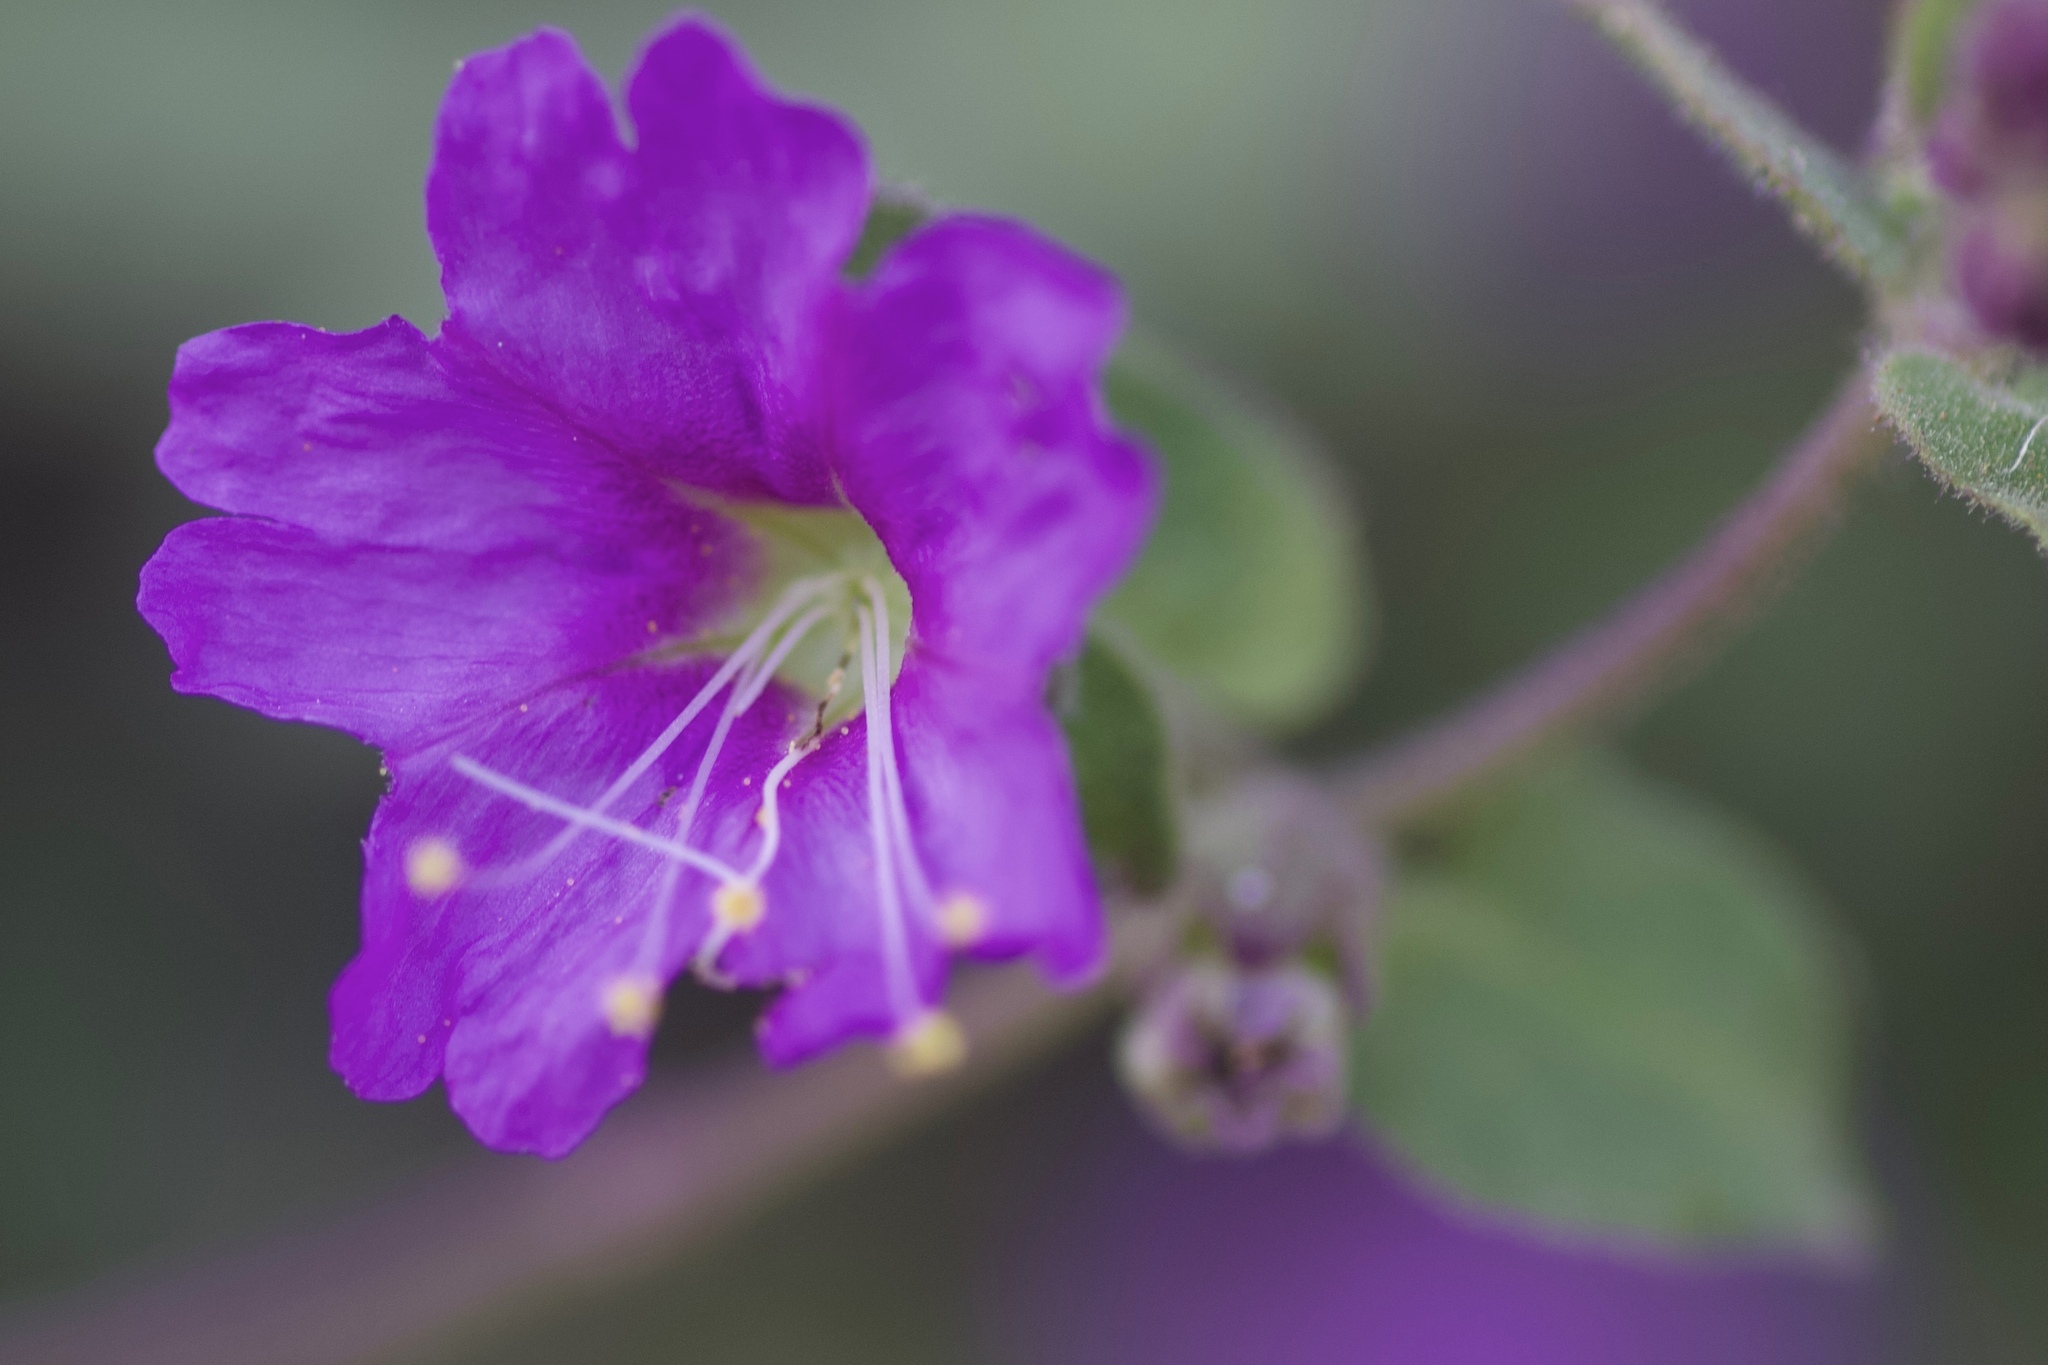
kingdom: Plantae
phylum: Tracheophyta
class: Magnoliopsida
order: Caryophyllales
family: Nyctaginaceae
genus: Mirabilis
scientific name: Mirabilis laevis
